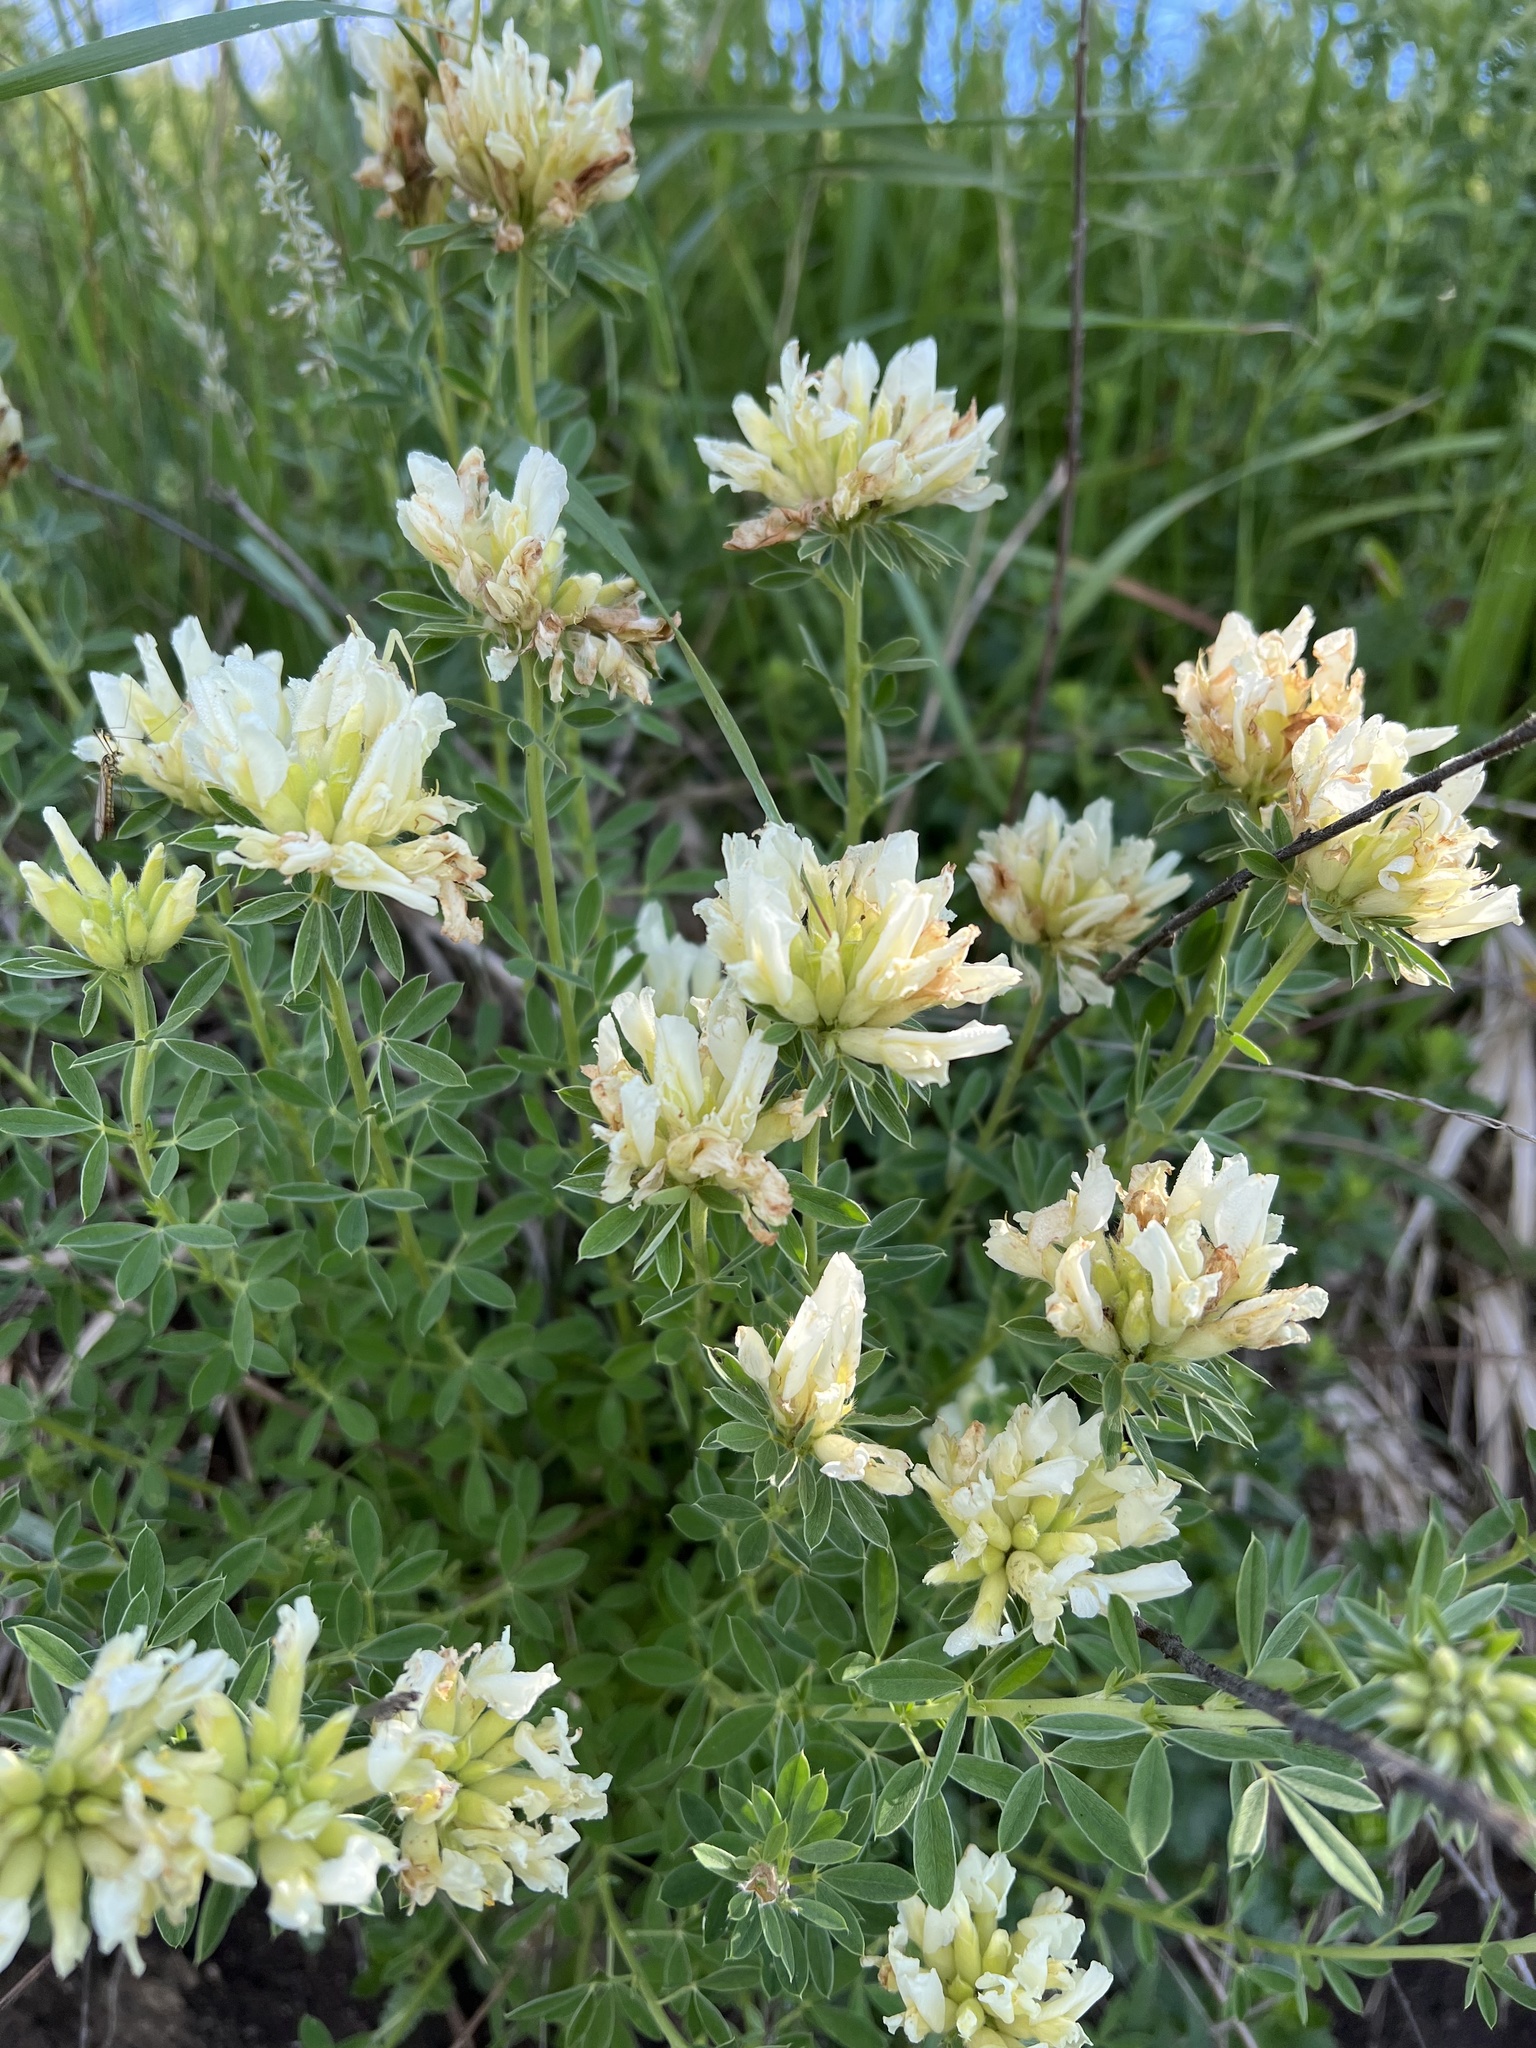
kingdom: Plantae
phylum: Tracheophyta
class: Magnoliopsida
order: Fabales
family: Fabaceae
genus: Chamaecytisus
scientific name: Chamaecytisus albus
